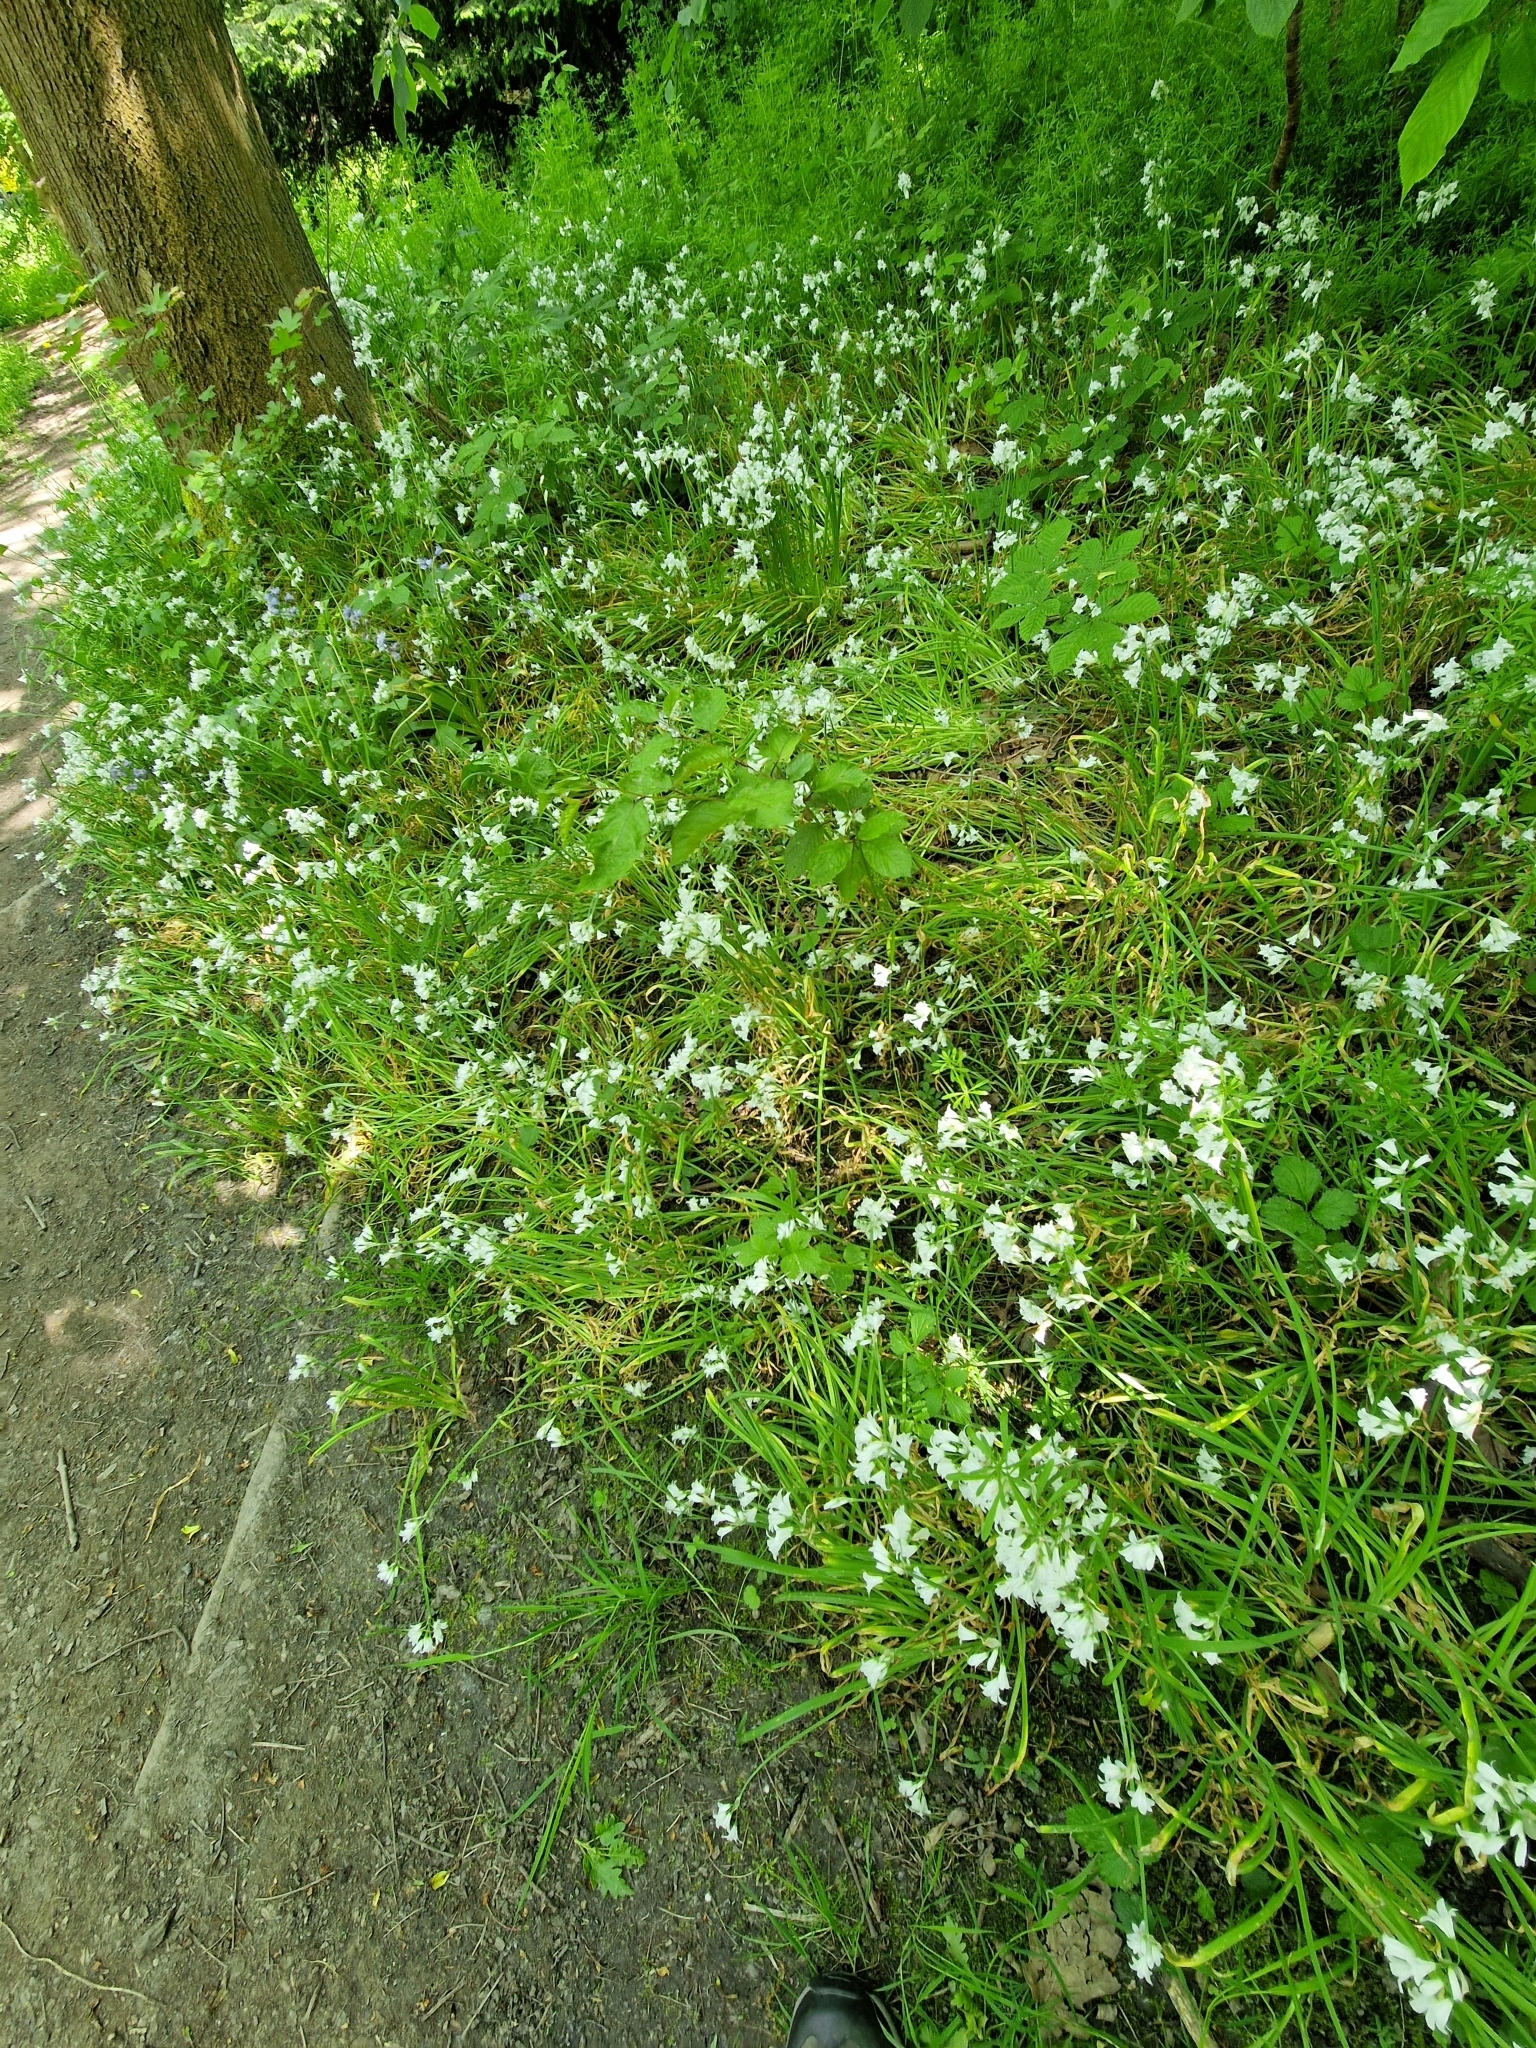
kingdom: Plantae
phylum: Tracheophyta
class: Liliopsida
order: Asparagales
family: Amaryllidaceae
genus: Allium
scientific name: Allium triquetrum
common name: Three-cornered garlic
